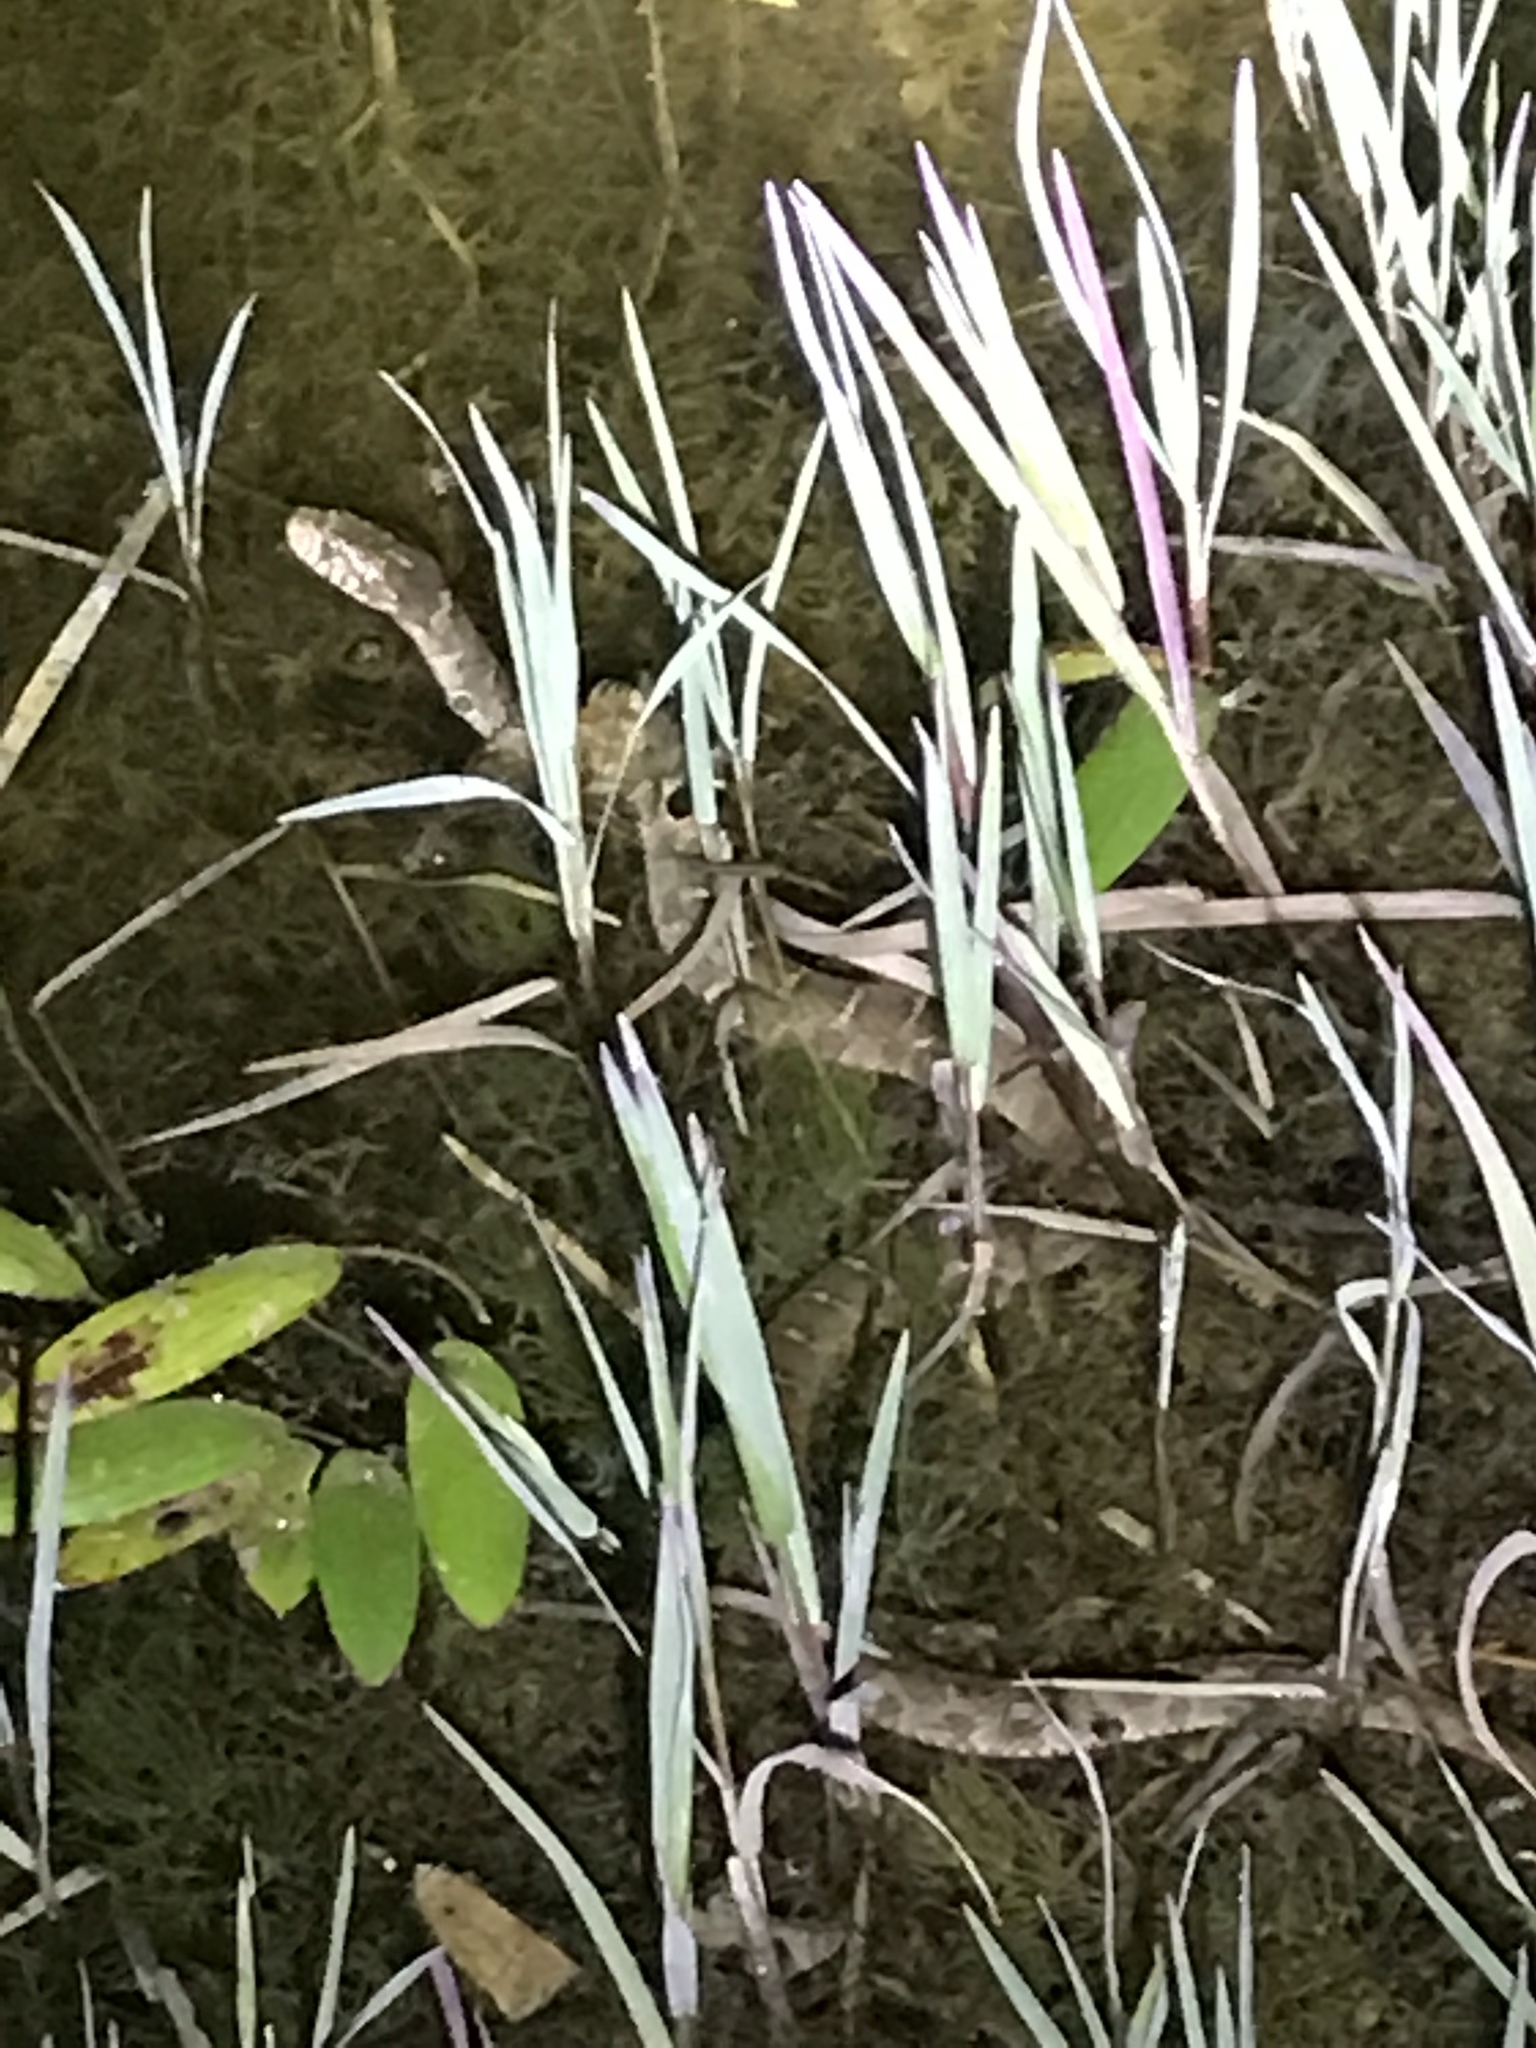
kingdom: Animalia
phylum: Chordata
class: Squamata
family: Colubridae
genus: Nerodia
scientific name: Nerodia erythrogaster
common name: Plainbelly water snake
